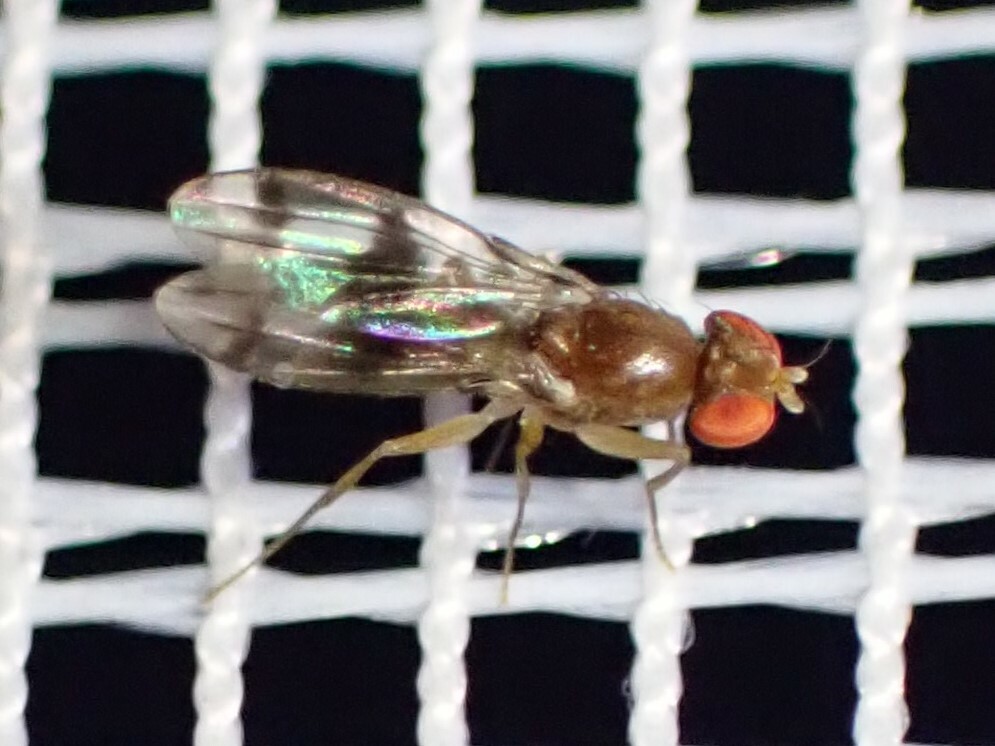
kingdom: Animalia
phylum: Arthropoda
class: Insecta
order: Diptera
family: Drosophilidae
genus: Chymomyza
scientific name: Chymomyza amoena
